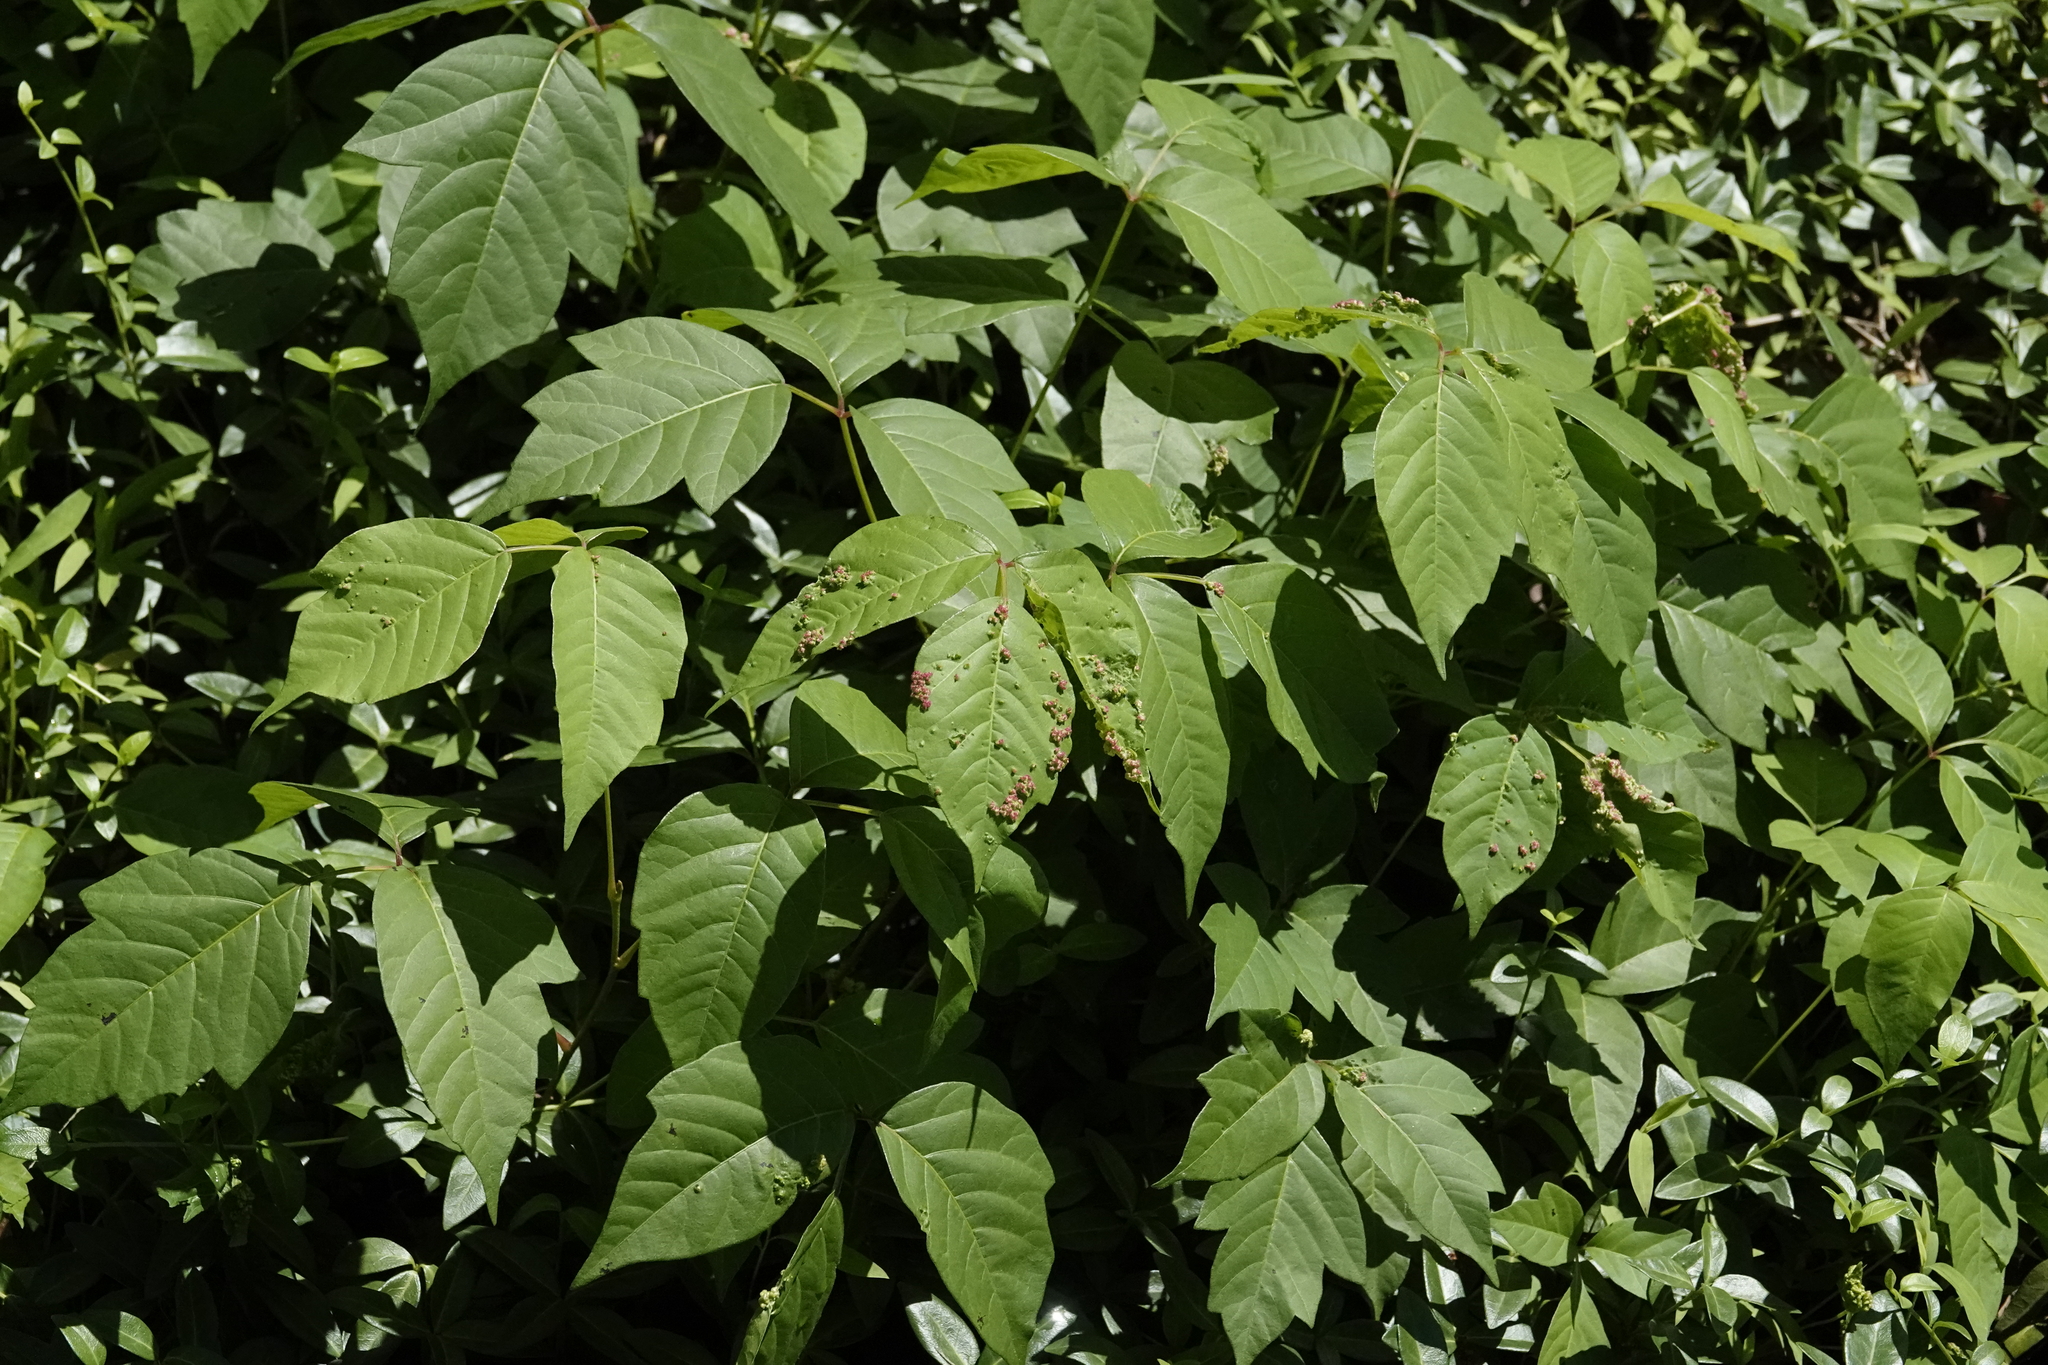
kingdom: Animalia
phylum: Arthropoda
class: Arachnida
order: Trombidiformes
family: Eriophyidae
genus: Aculops
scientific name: Aculops
